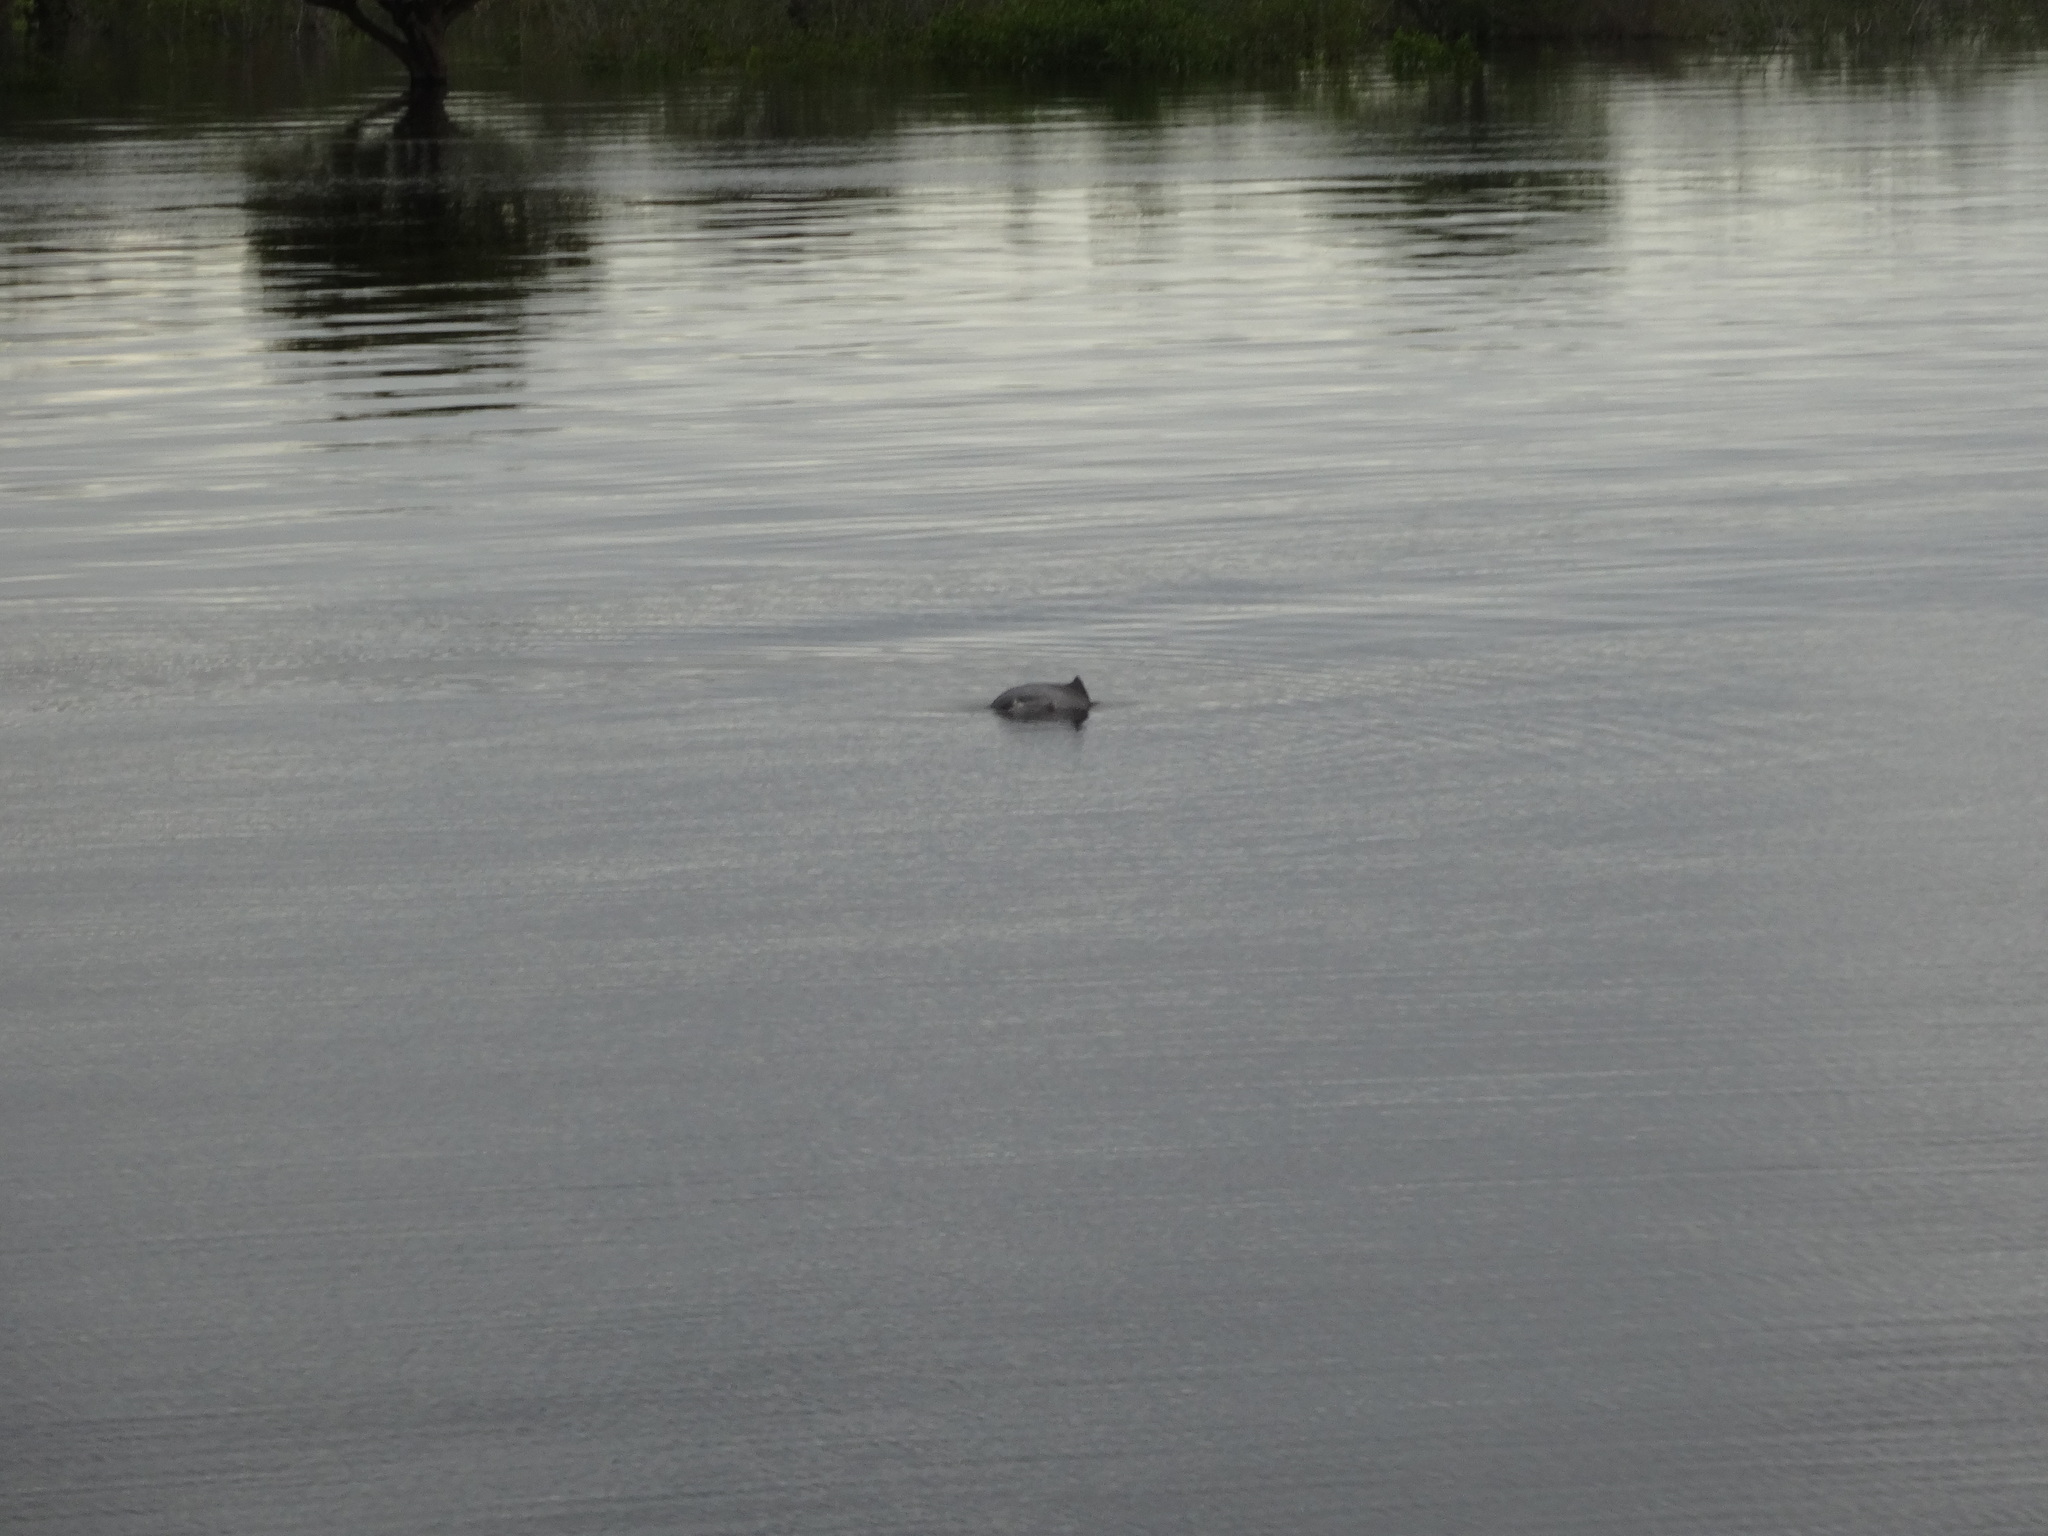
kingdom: Animalia
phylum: Chordata
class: Mammalia
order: Cetacea
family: Delphinidae
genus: Sotalia
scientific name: Sotalia fluviatilis
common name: Tucuxi
